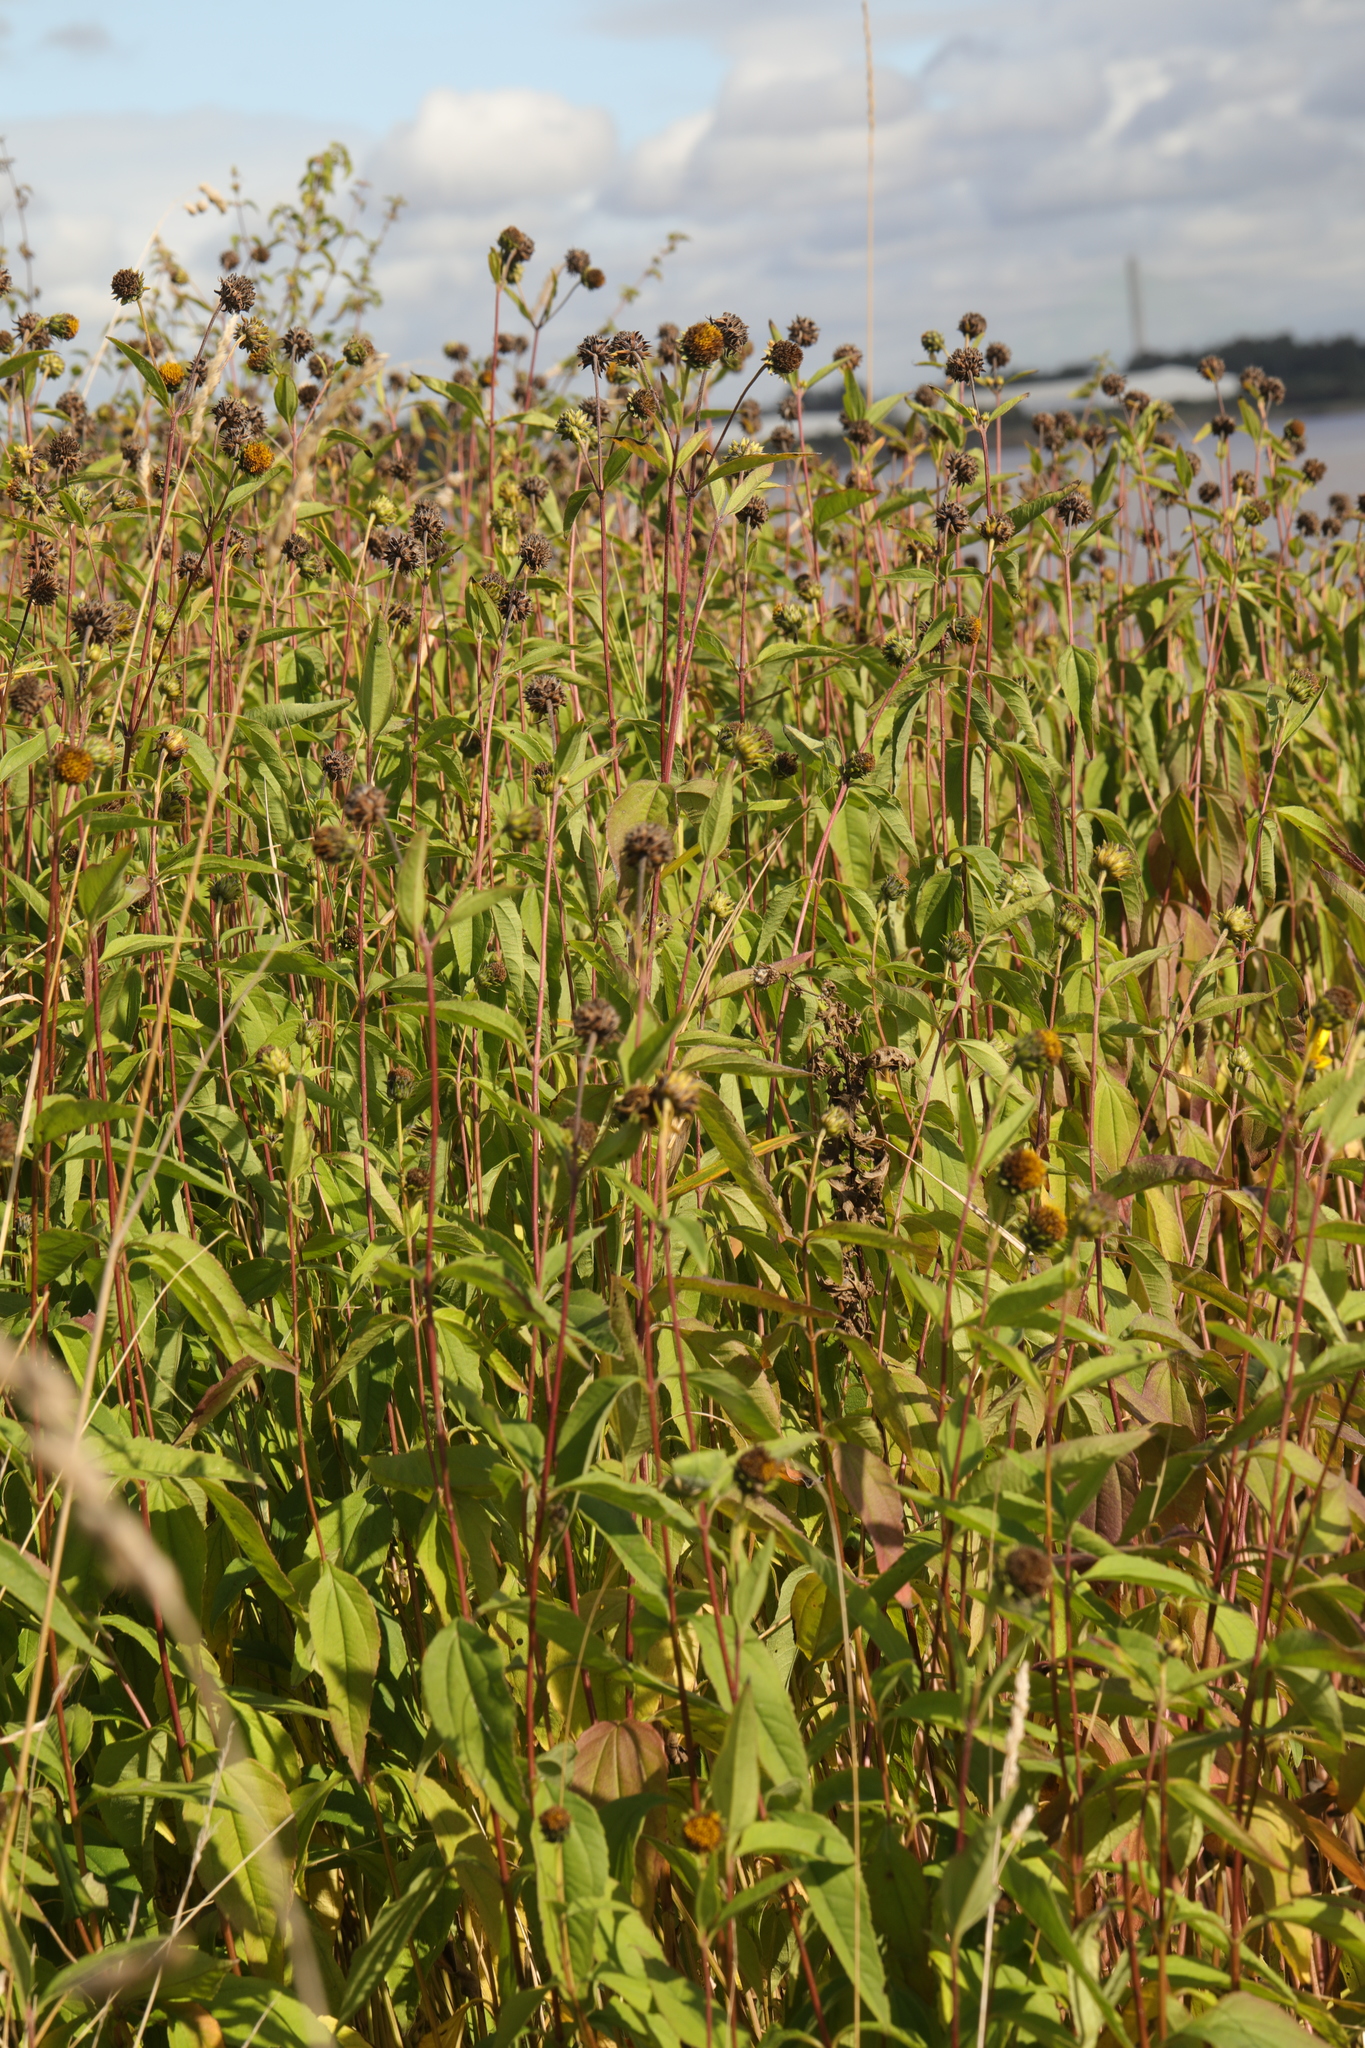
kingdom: Plantae
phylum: Tracheophyta
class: Magnoliopsida
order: Asterales
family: Asteraceae
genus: Helianthus
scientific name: Helianthus laetiflorus
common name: Perennial sunflower
